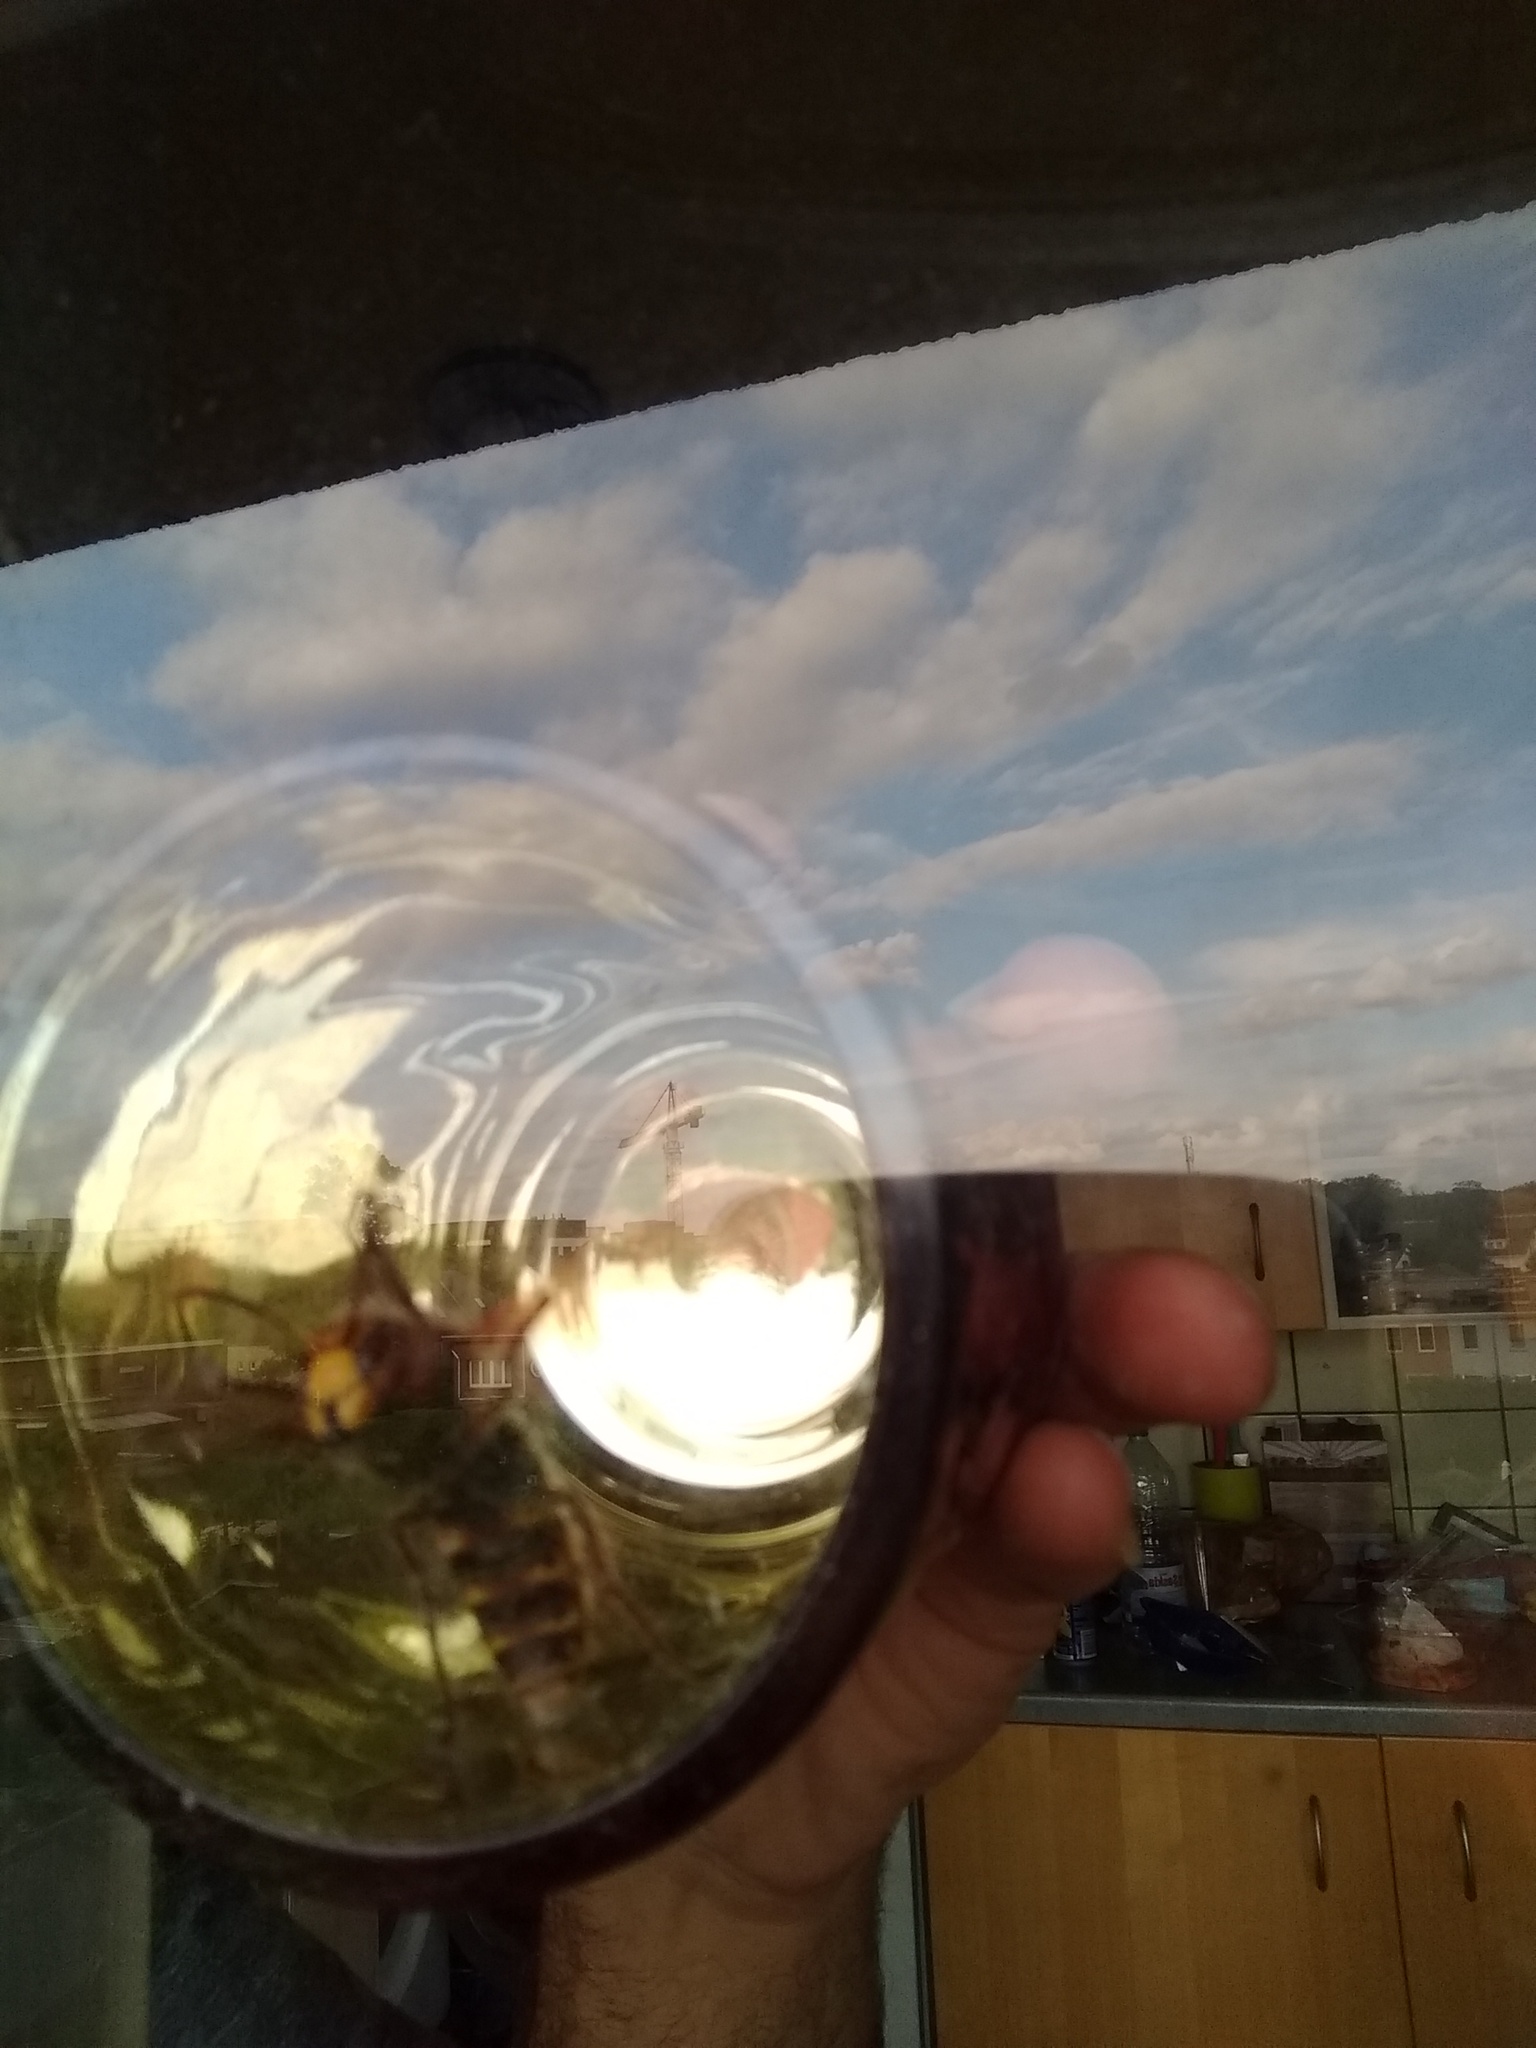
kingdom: Animalia
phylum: Arthropoda
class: Insecta
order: Hymenoptera
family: Vespidae
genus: Vespa
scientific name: Vespa crabro
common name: Hornet
